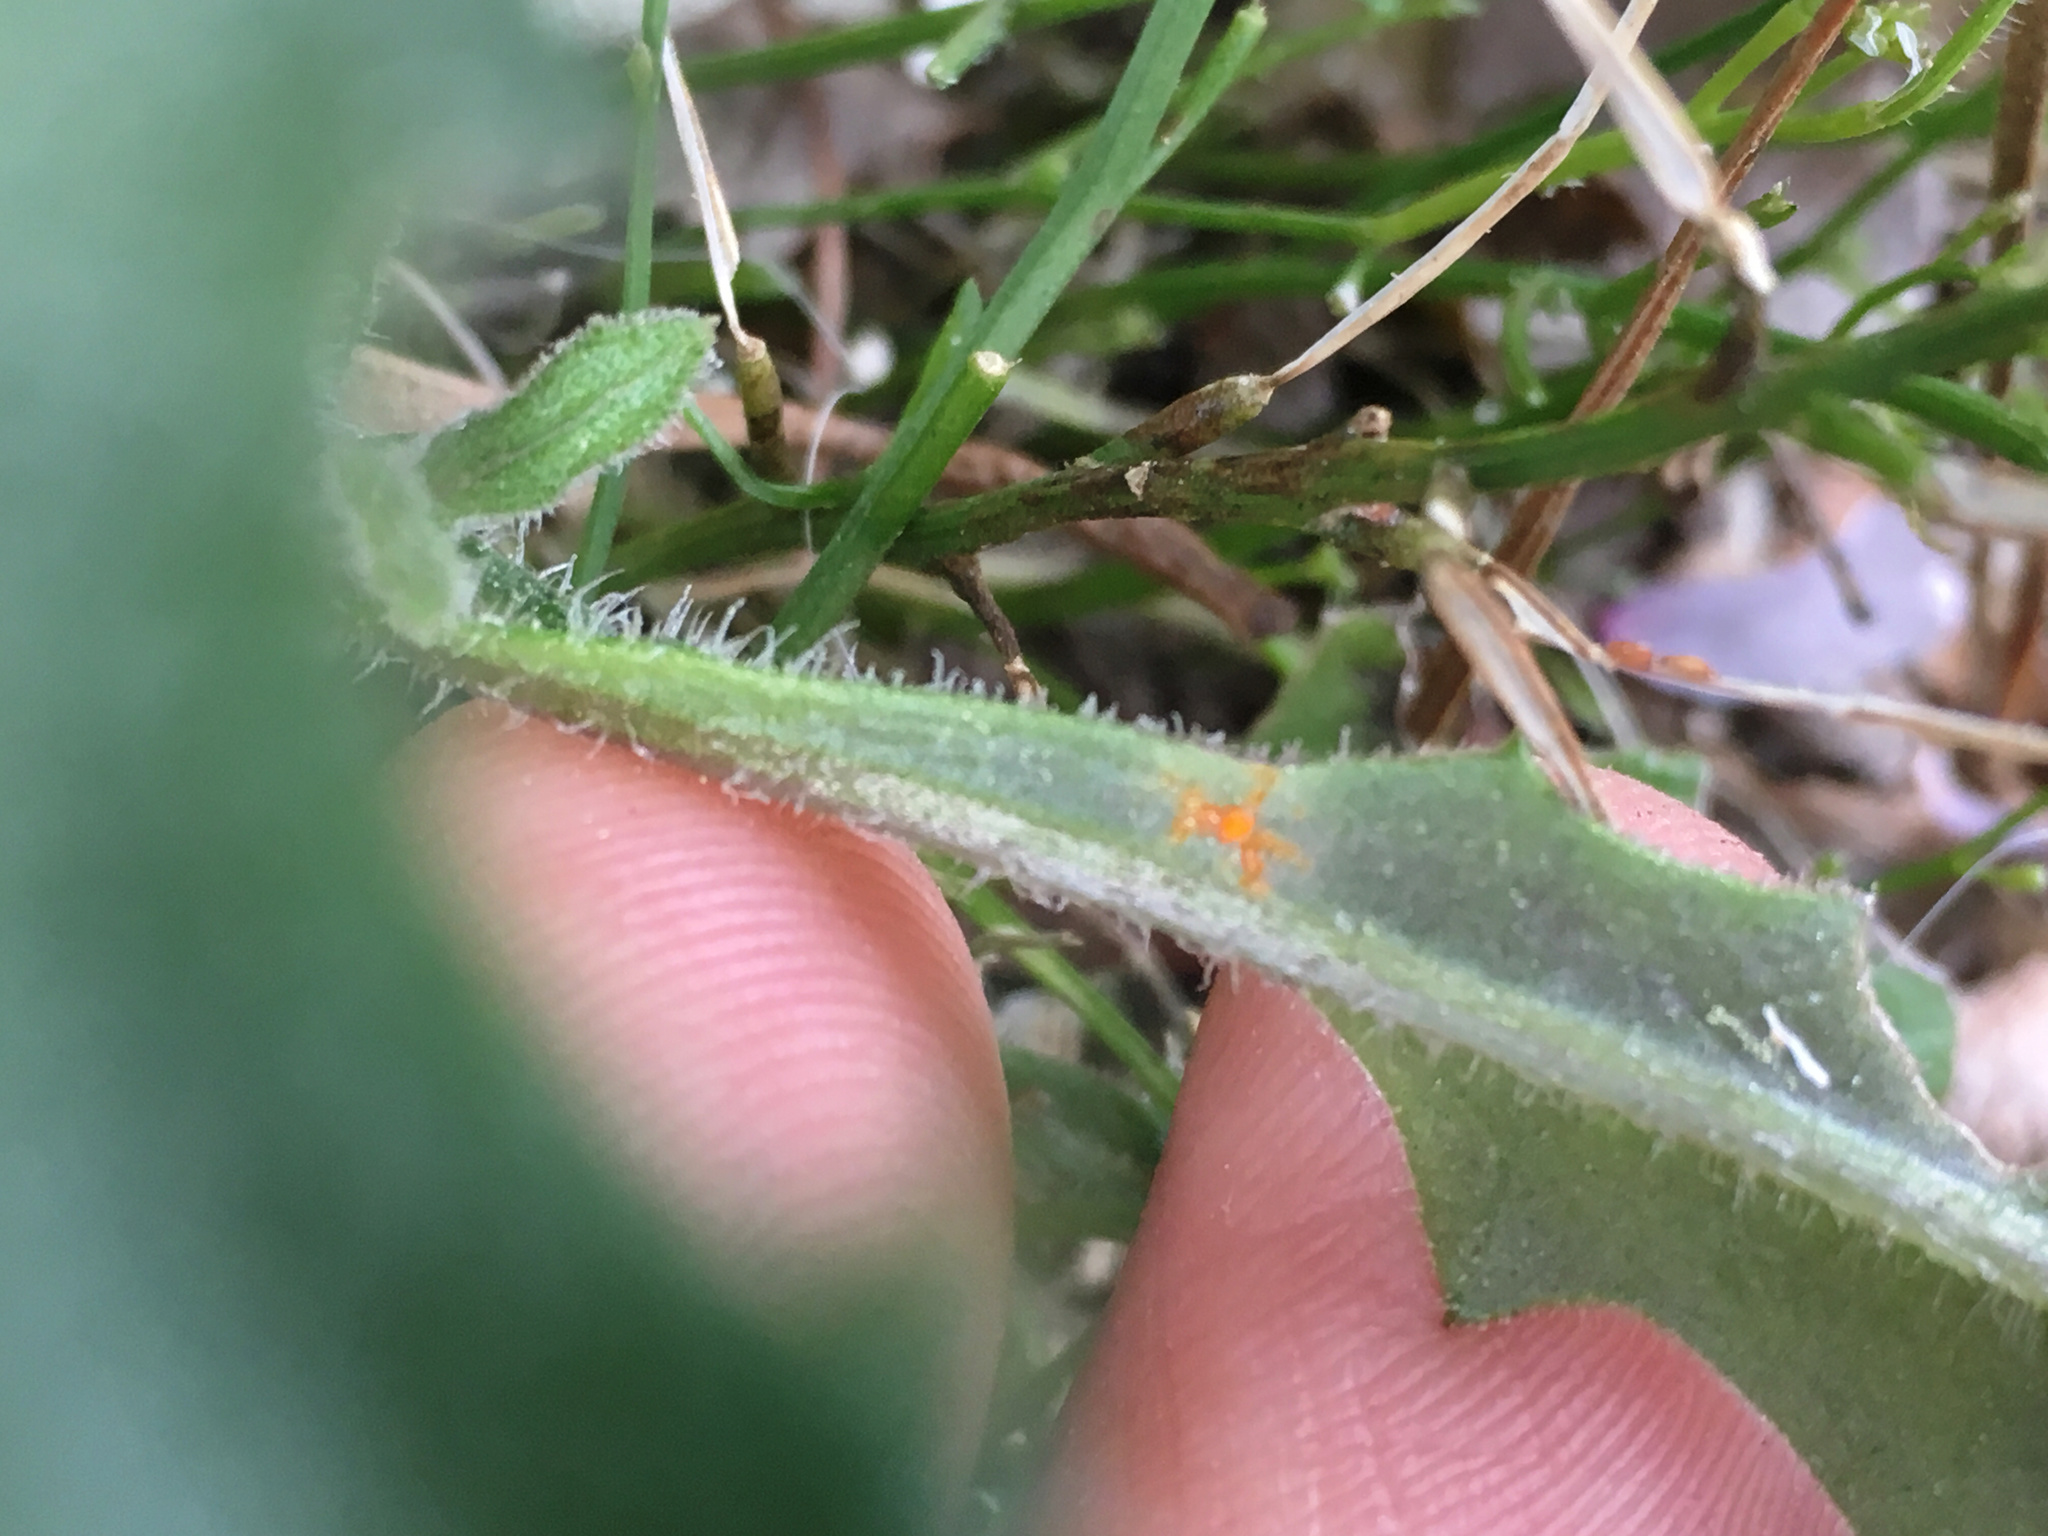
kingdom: Fungi
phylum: Basidiomycota
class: Pucciniomycetes
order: Pucciniales
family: Coleosporiaceae
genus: Coleosporium
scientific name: Coleosporium tussilaginis
